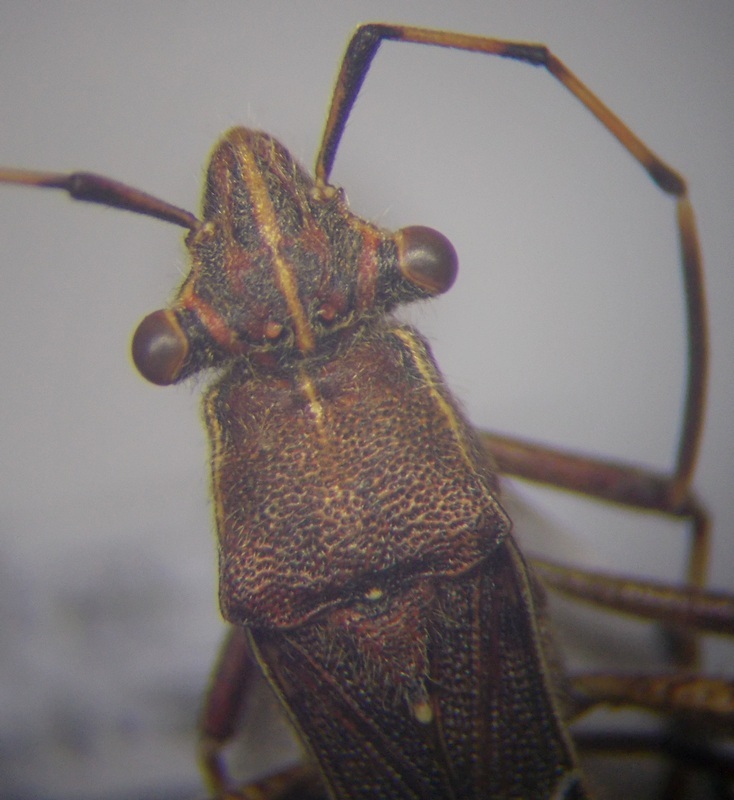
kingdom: Animalia
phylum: Arthropoda
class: Insecta
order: Hemiptera
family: Alydidae
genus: Camptopus
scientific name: Camptopus lateralis
